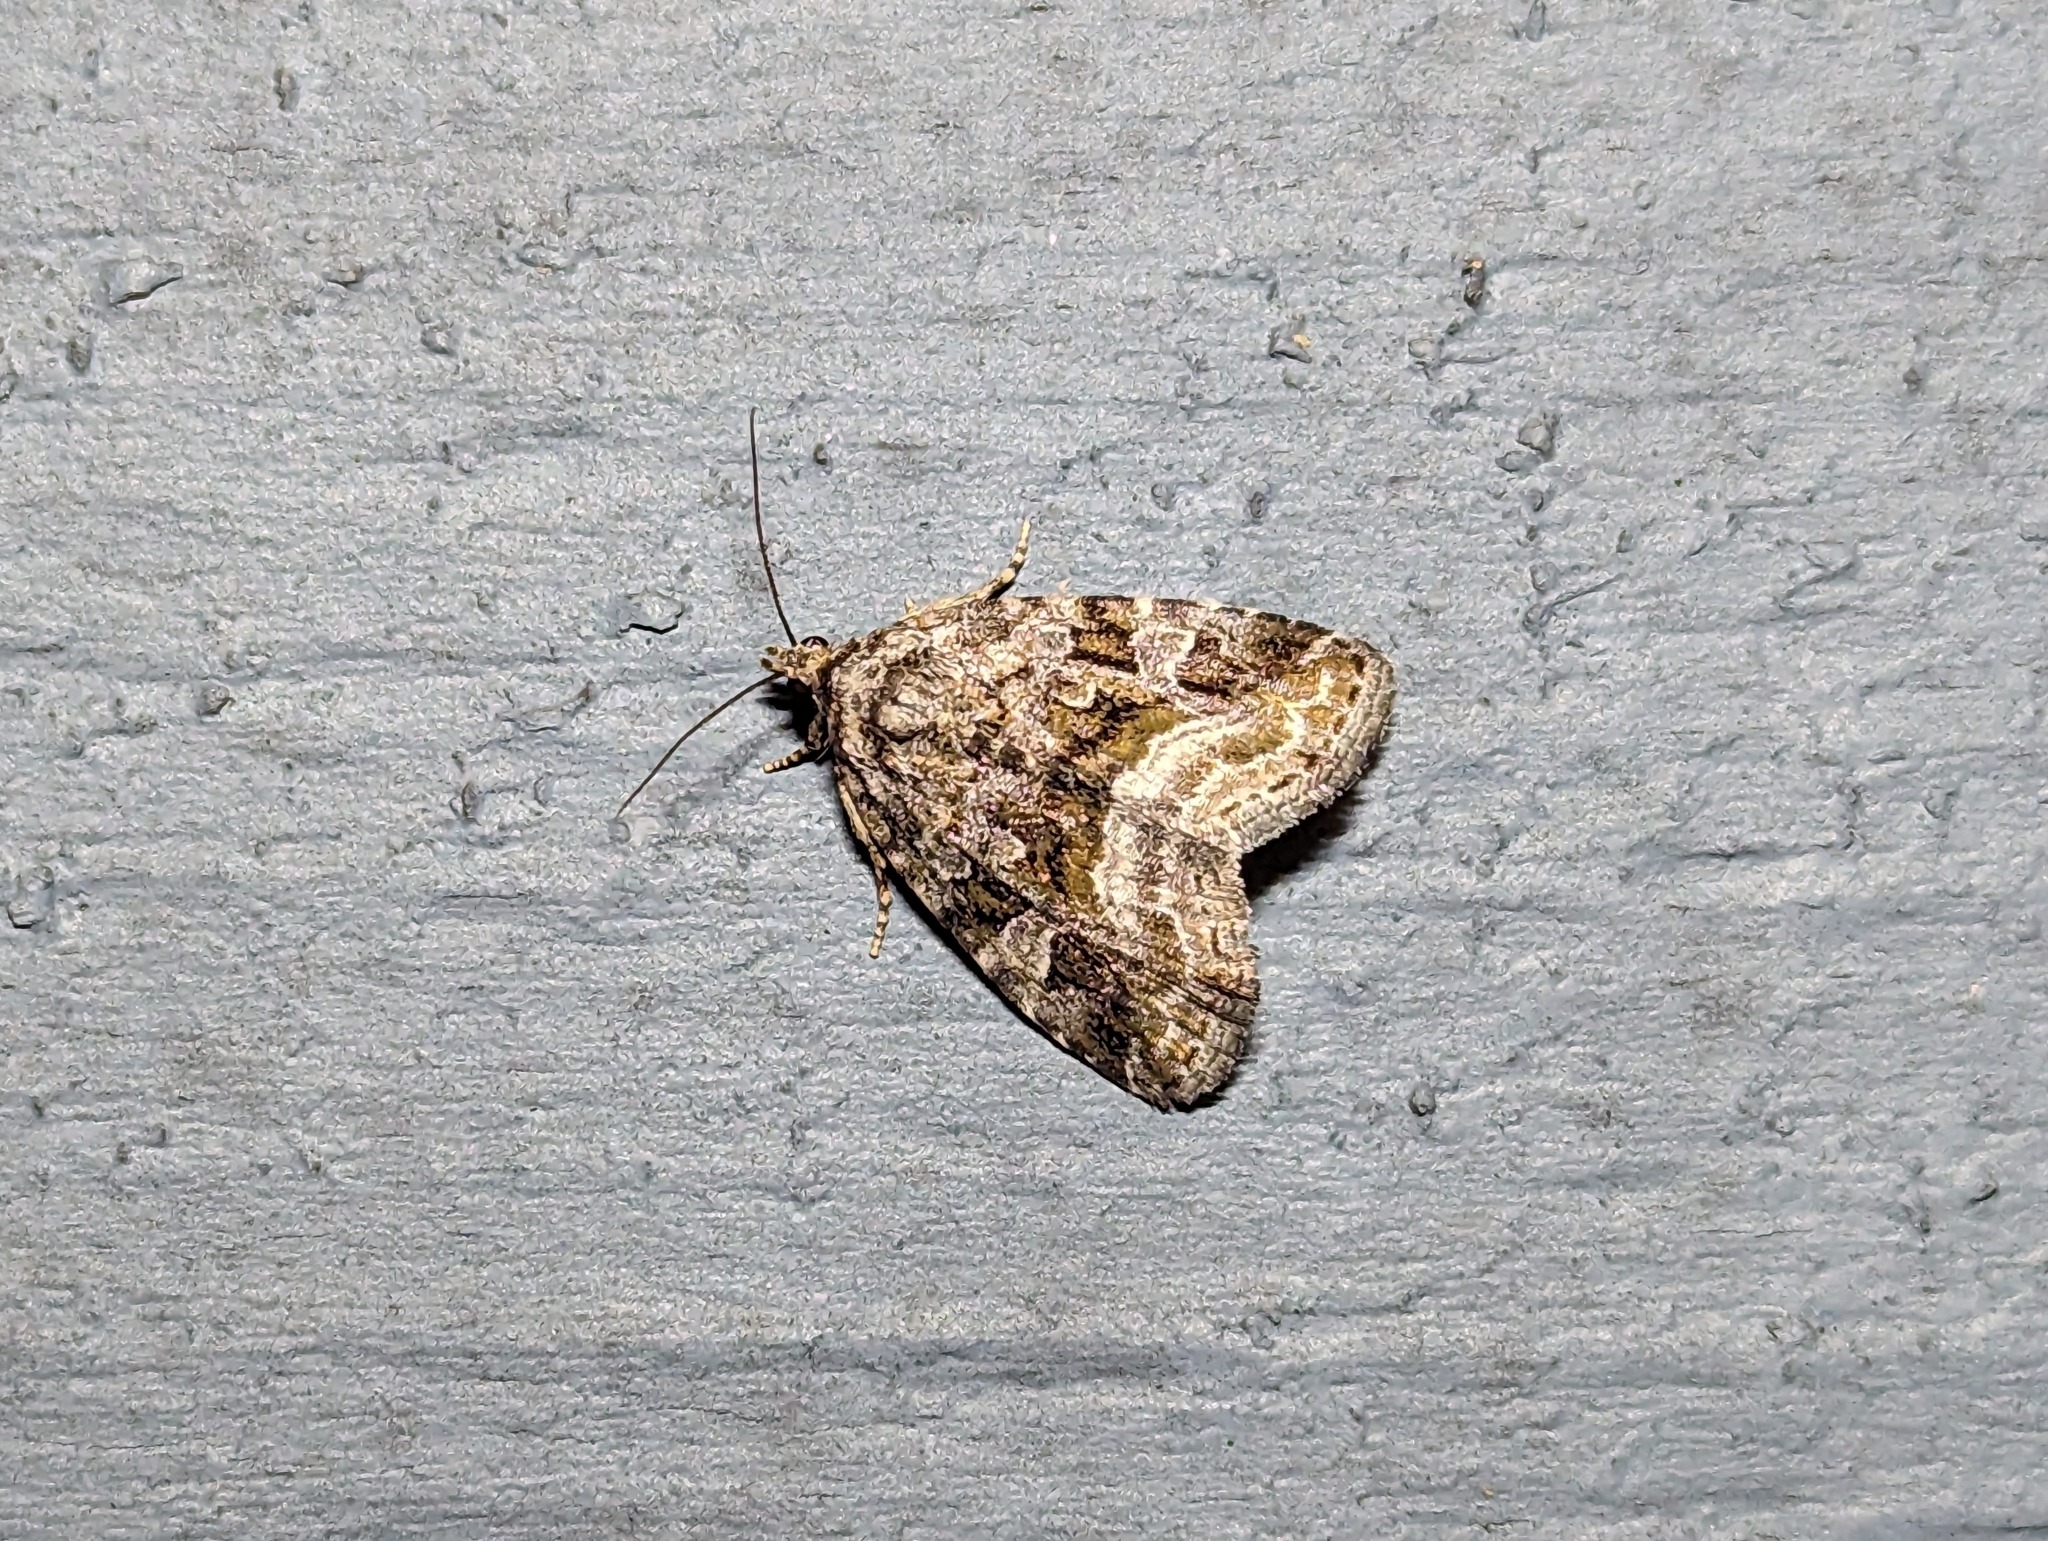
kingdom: Animalia
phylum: Arthropoda
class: Insecta
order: Lepidoptera
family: Noctuidae
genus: Protodeltote
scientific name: Protodeltote muscosula
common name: Large mossy glyph
